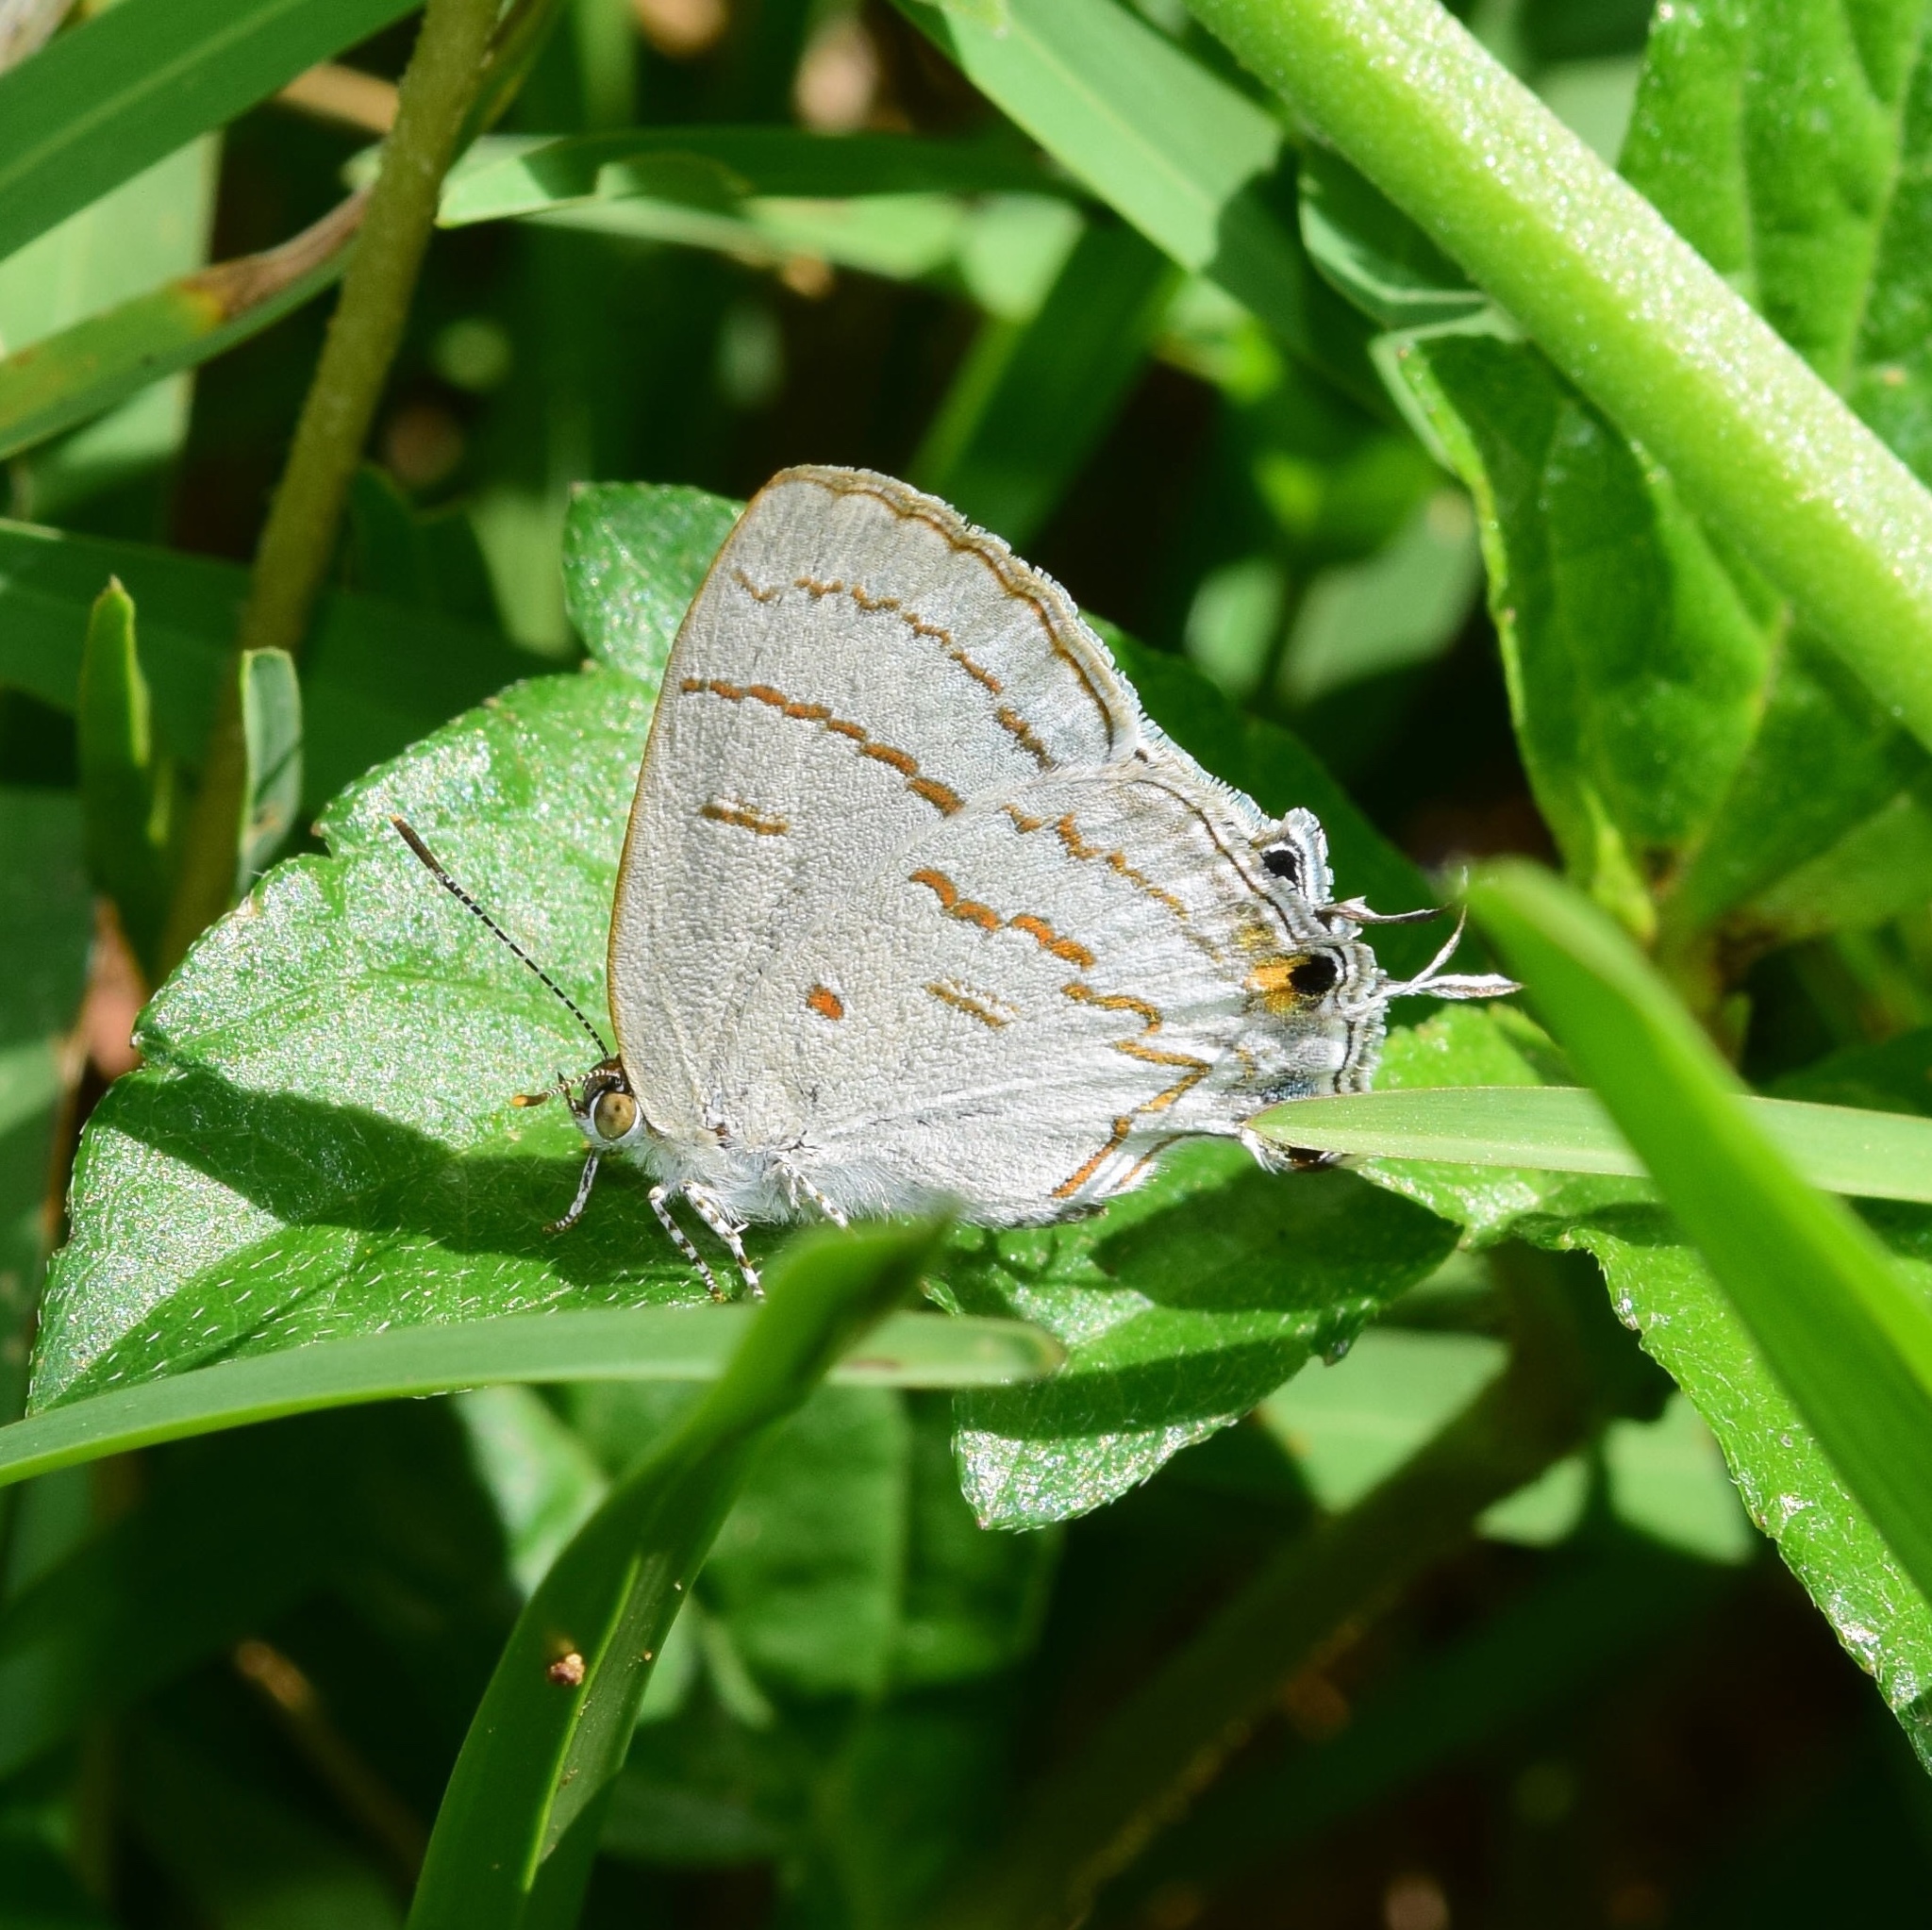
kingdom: Animalia
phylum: Arthropoda
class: Insecta
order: Lepidoptera
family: Lycaenidae
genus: Hypolycaena
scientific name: Hypolycaena philippus
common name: Common hairstreak
